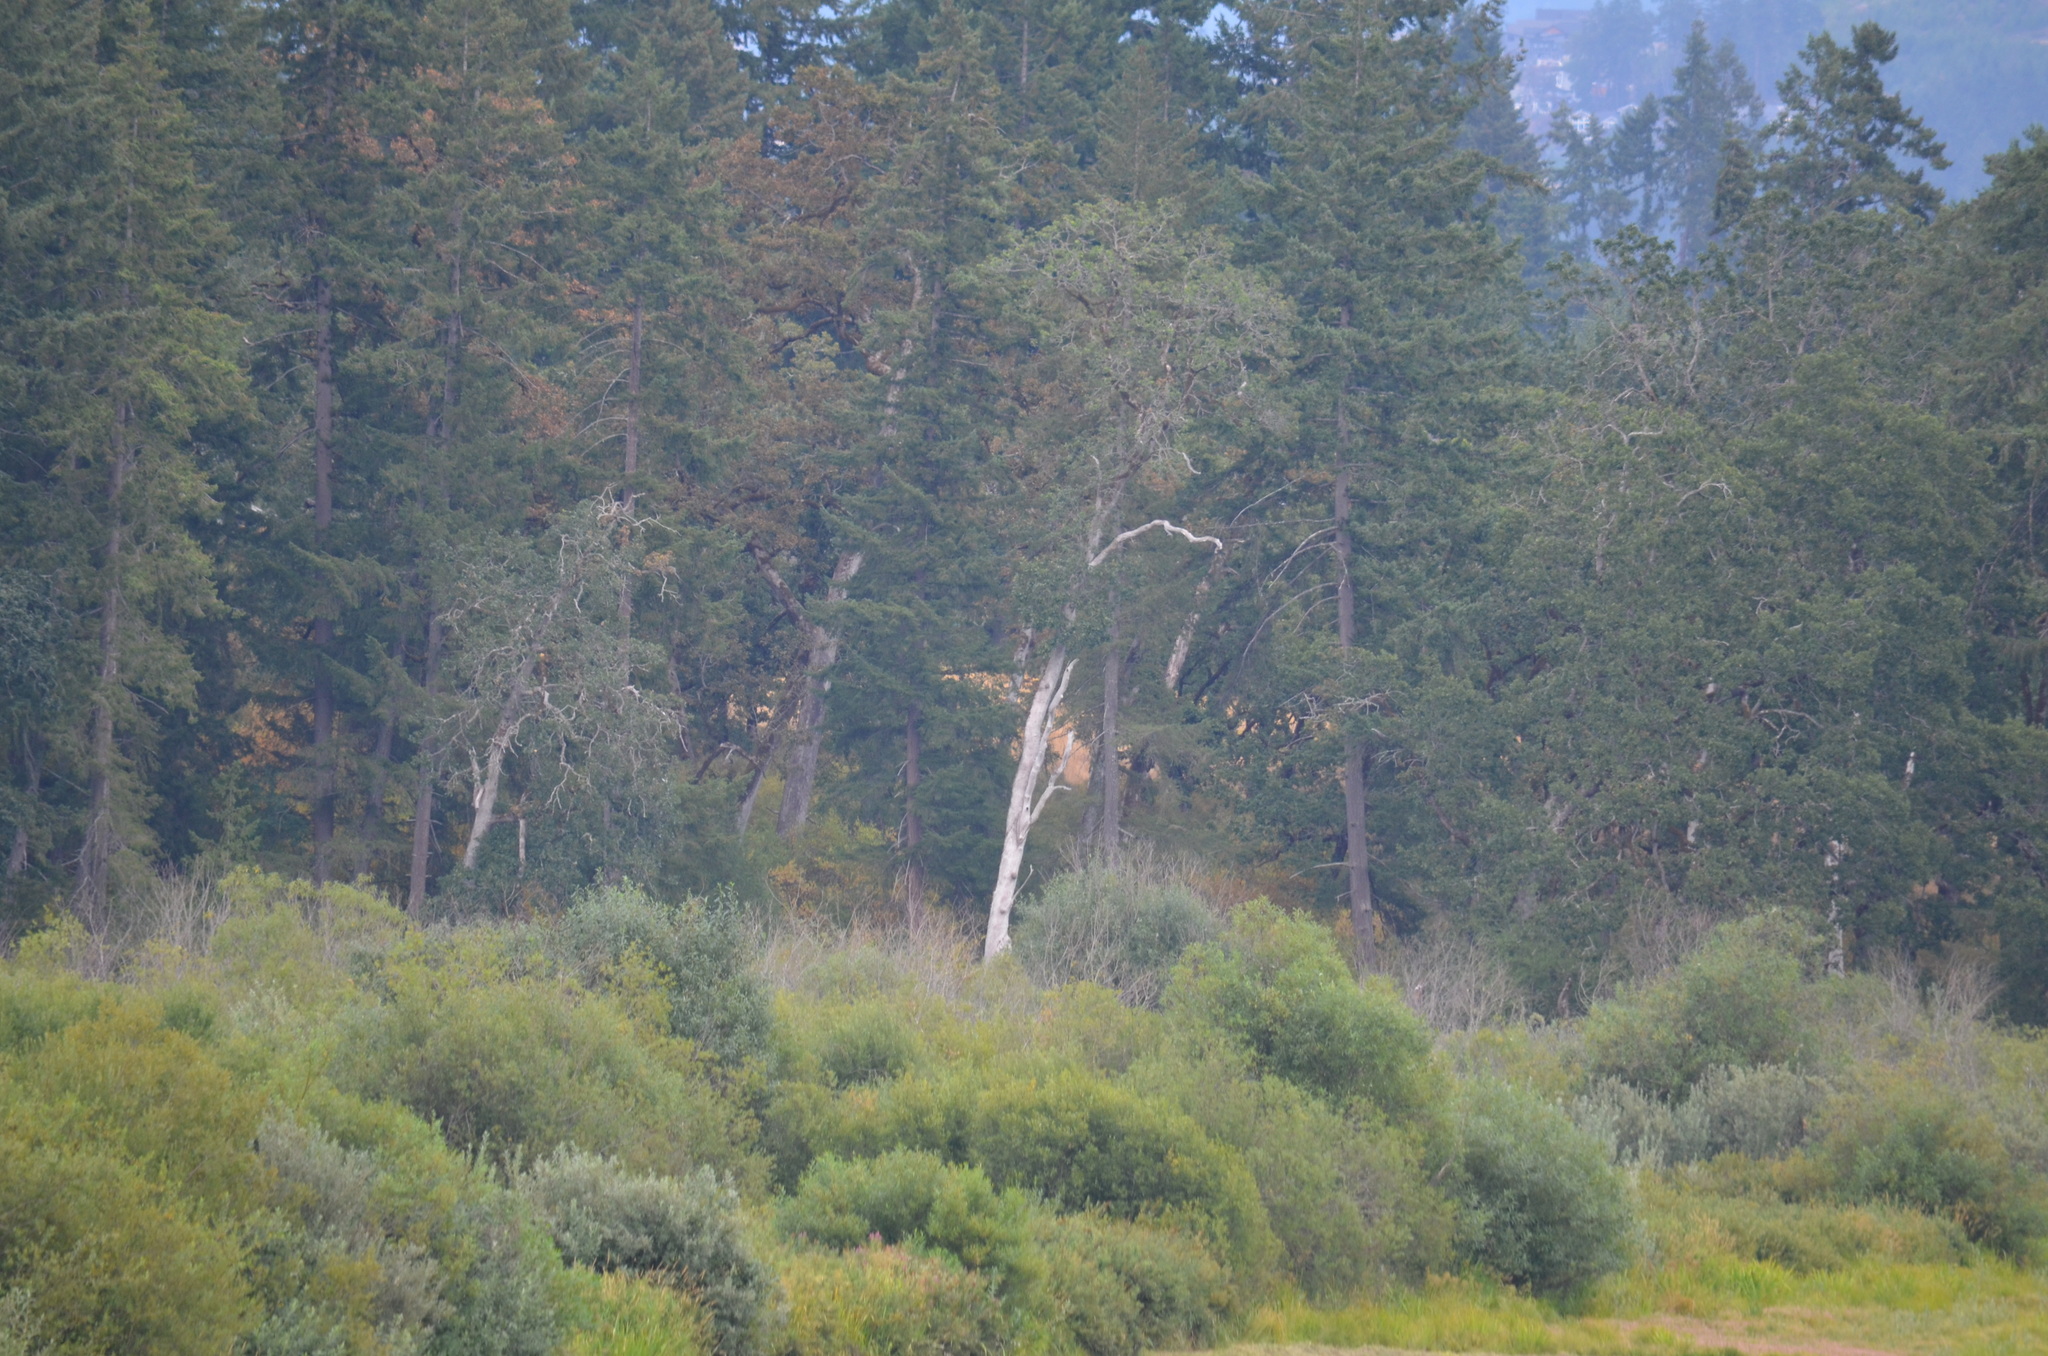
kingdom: Plantae
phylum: Tracheophyta
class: Magnoliopsida
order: Fagales
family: Fagaceae
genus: Quercus
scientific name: Quercus garryana
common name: Garry oak
